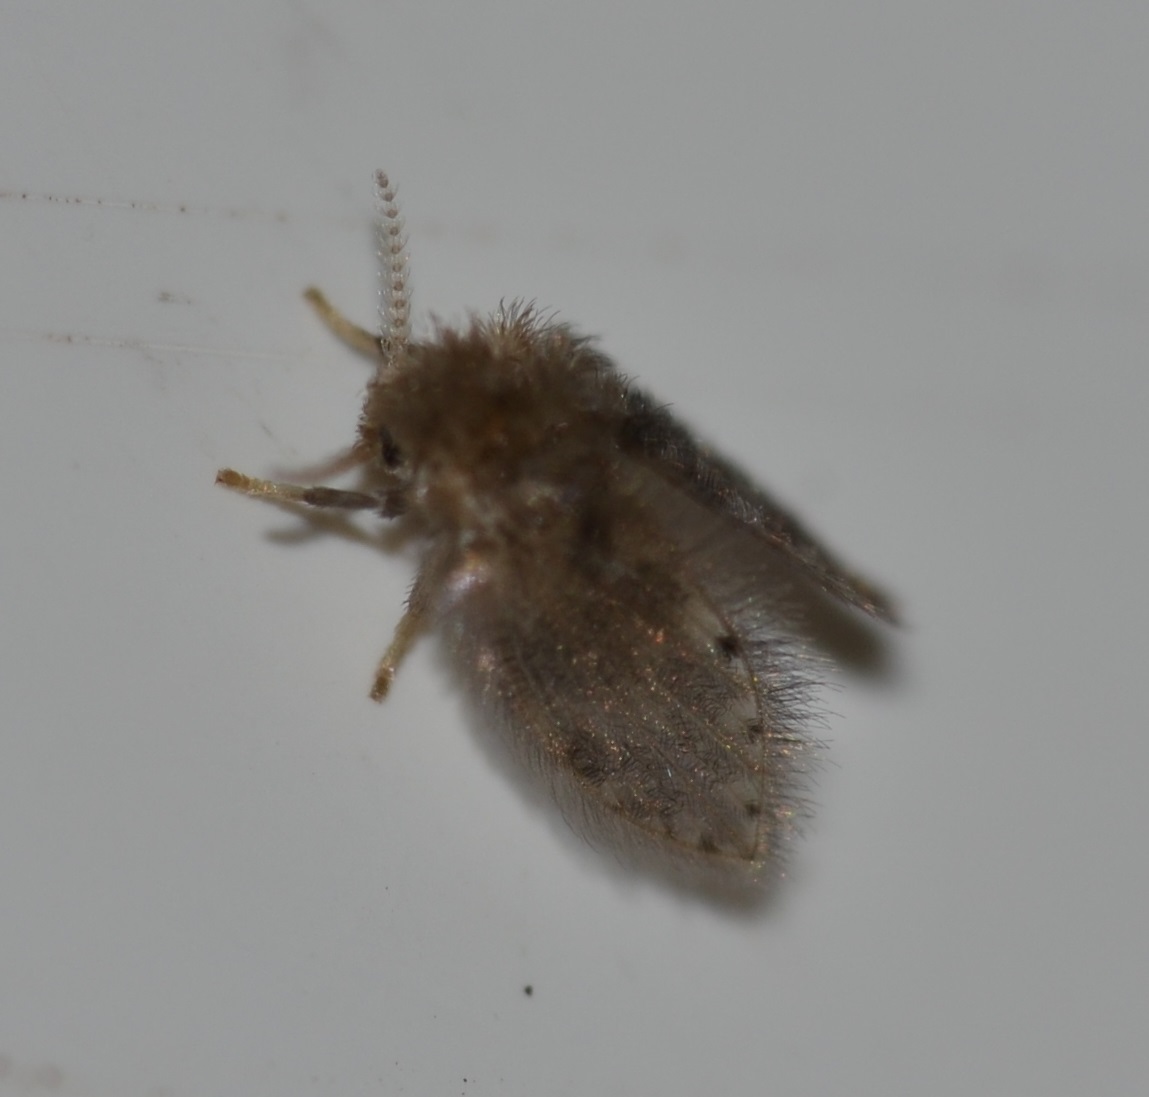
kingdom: Animalia
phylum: Arthropoda
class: Insecta
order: Diptera
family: Psychodidae
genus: Psychoda
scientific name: Psychoda alternata
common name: Moth fly
